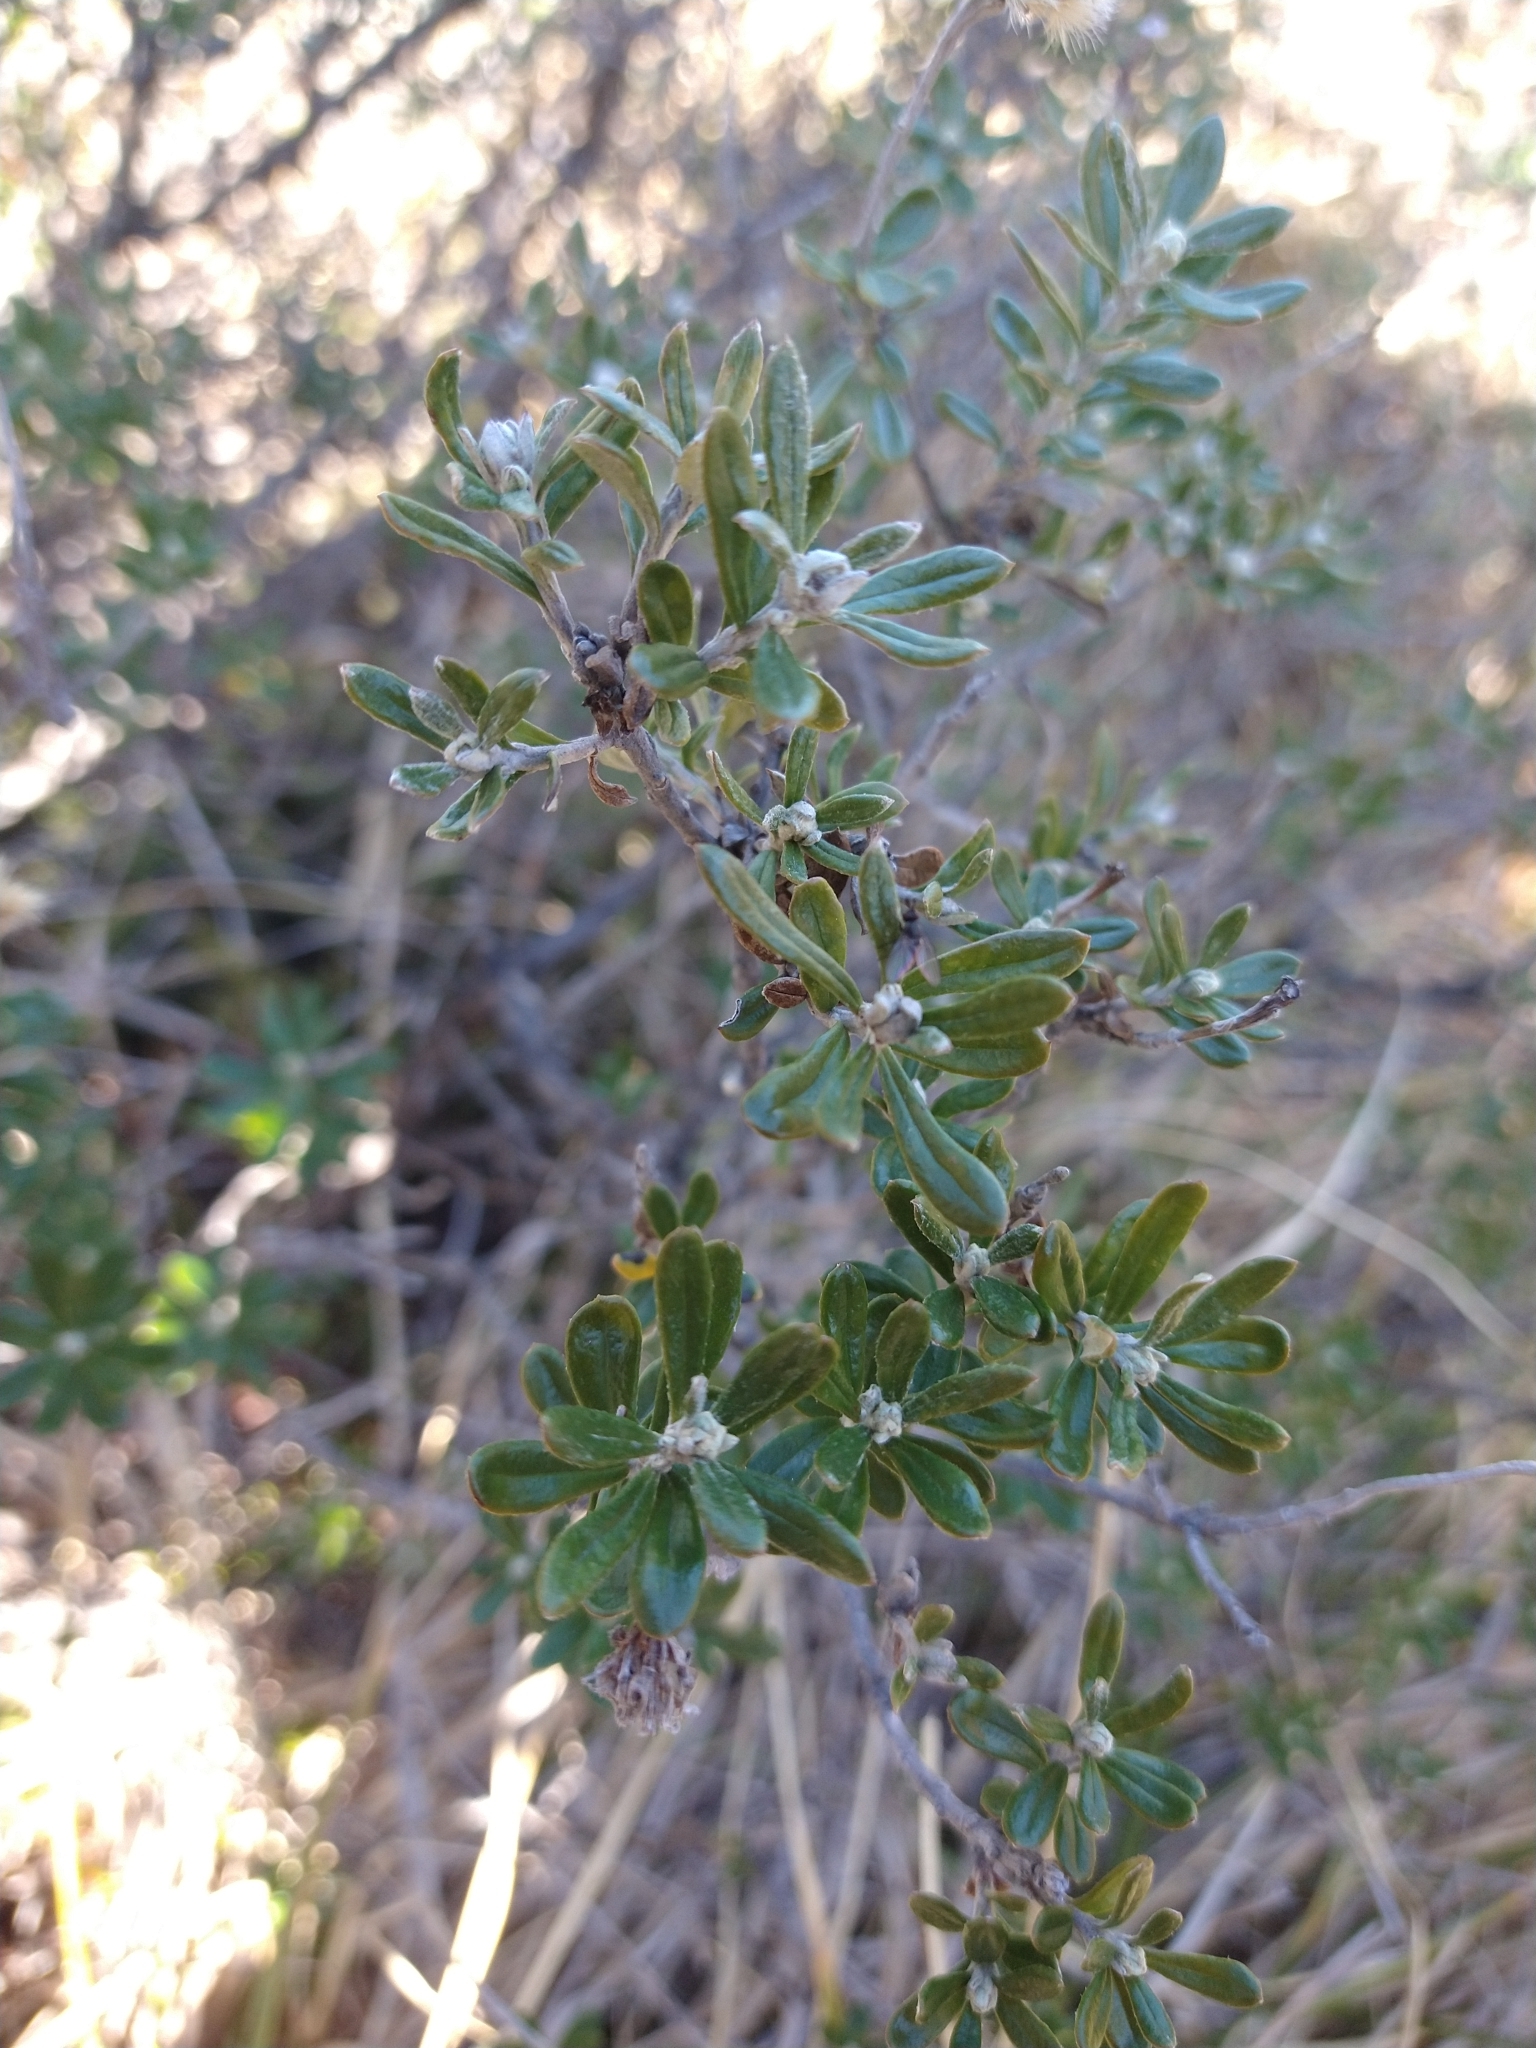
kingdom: Plantae
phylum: Tracheophyta
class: Magnoliopsida
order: Asterales
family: Asteraceae
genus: Chiliotrichum
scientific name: Chiliotrichum diffusum
